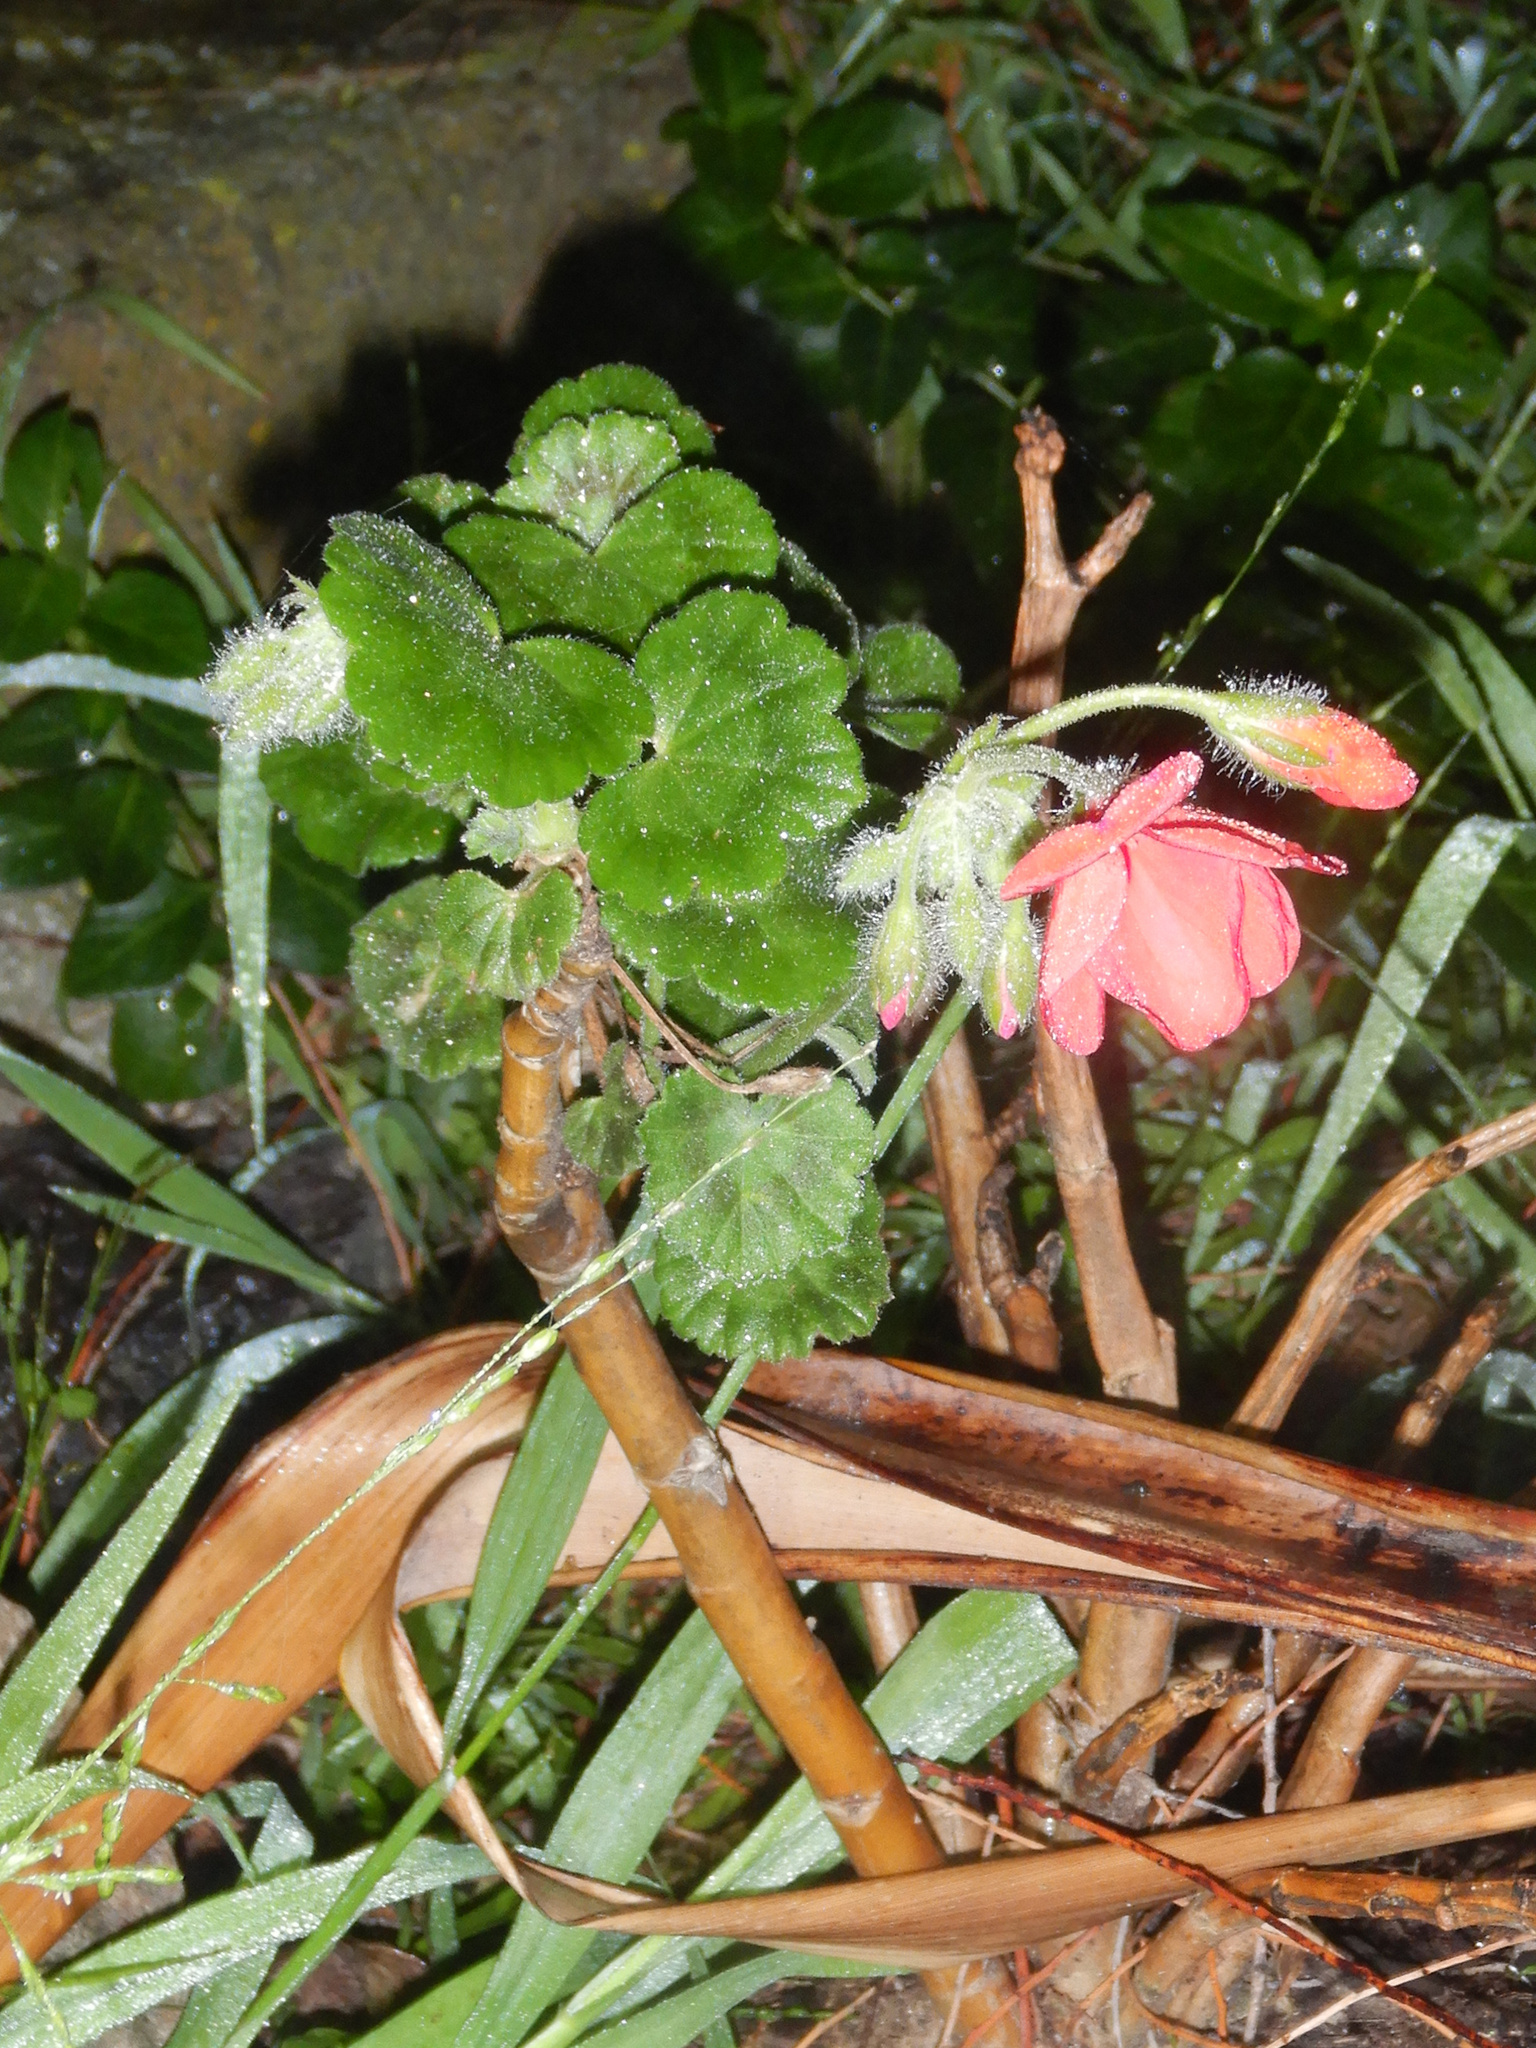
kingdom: Plantae
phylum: Tracheophyta
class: Magnoliopsida
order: Geraniales
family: Geraniaceae
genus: Pelargonium
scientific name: Pelargonium hybridum
